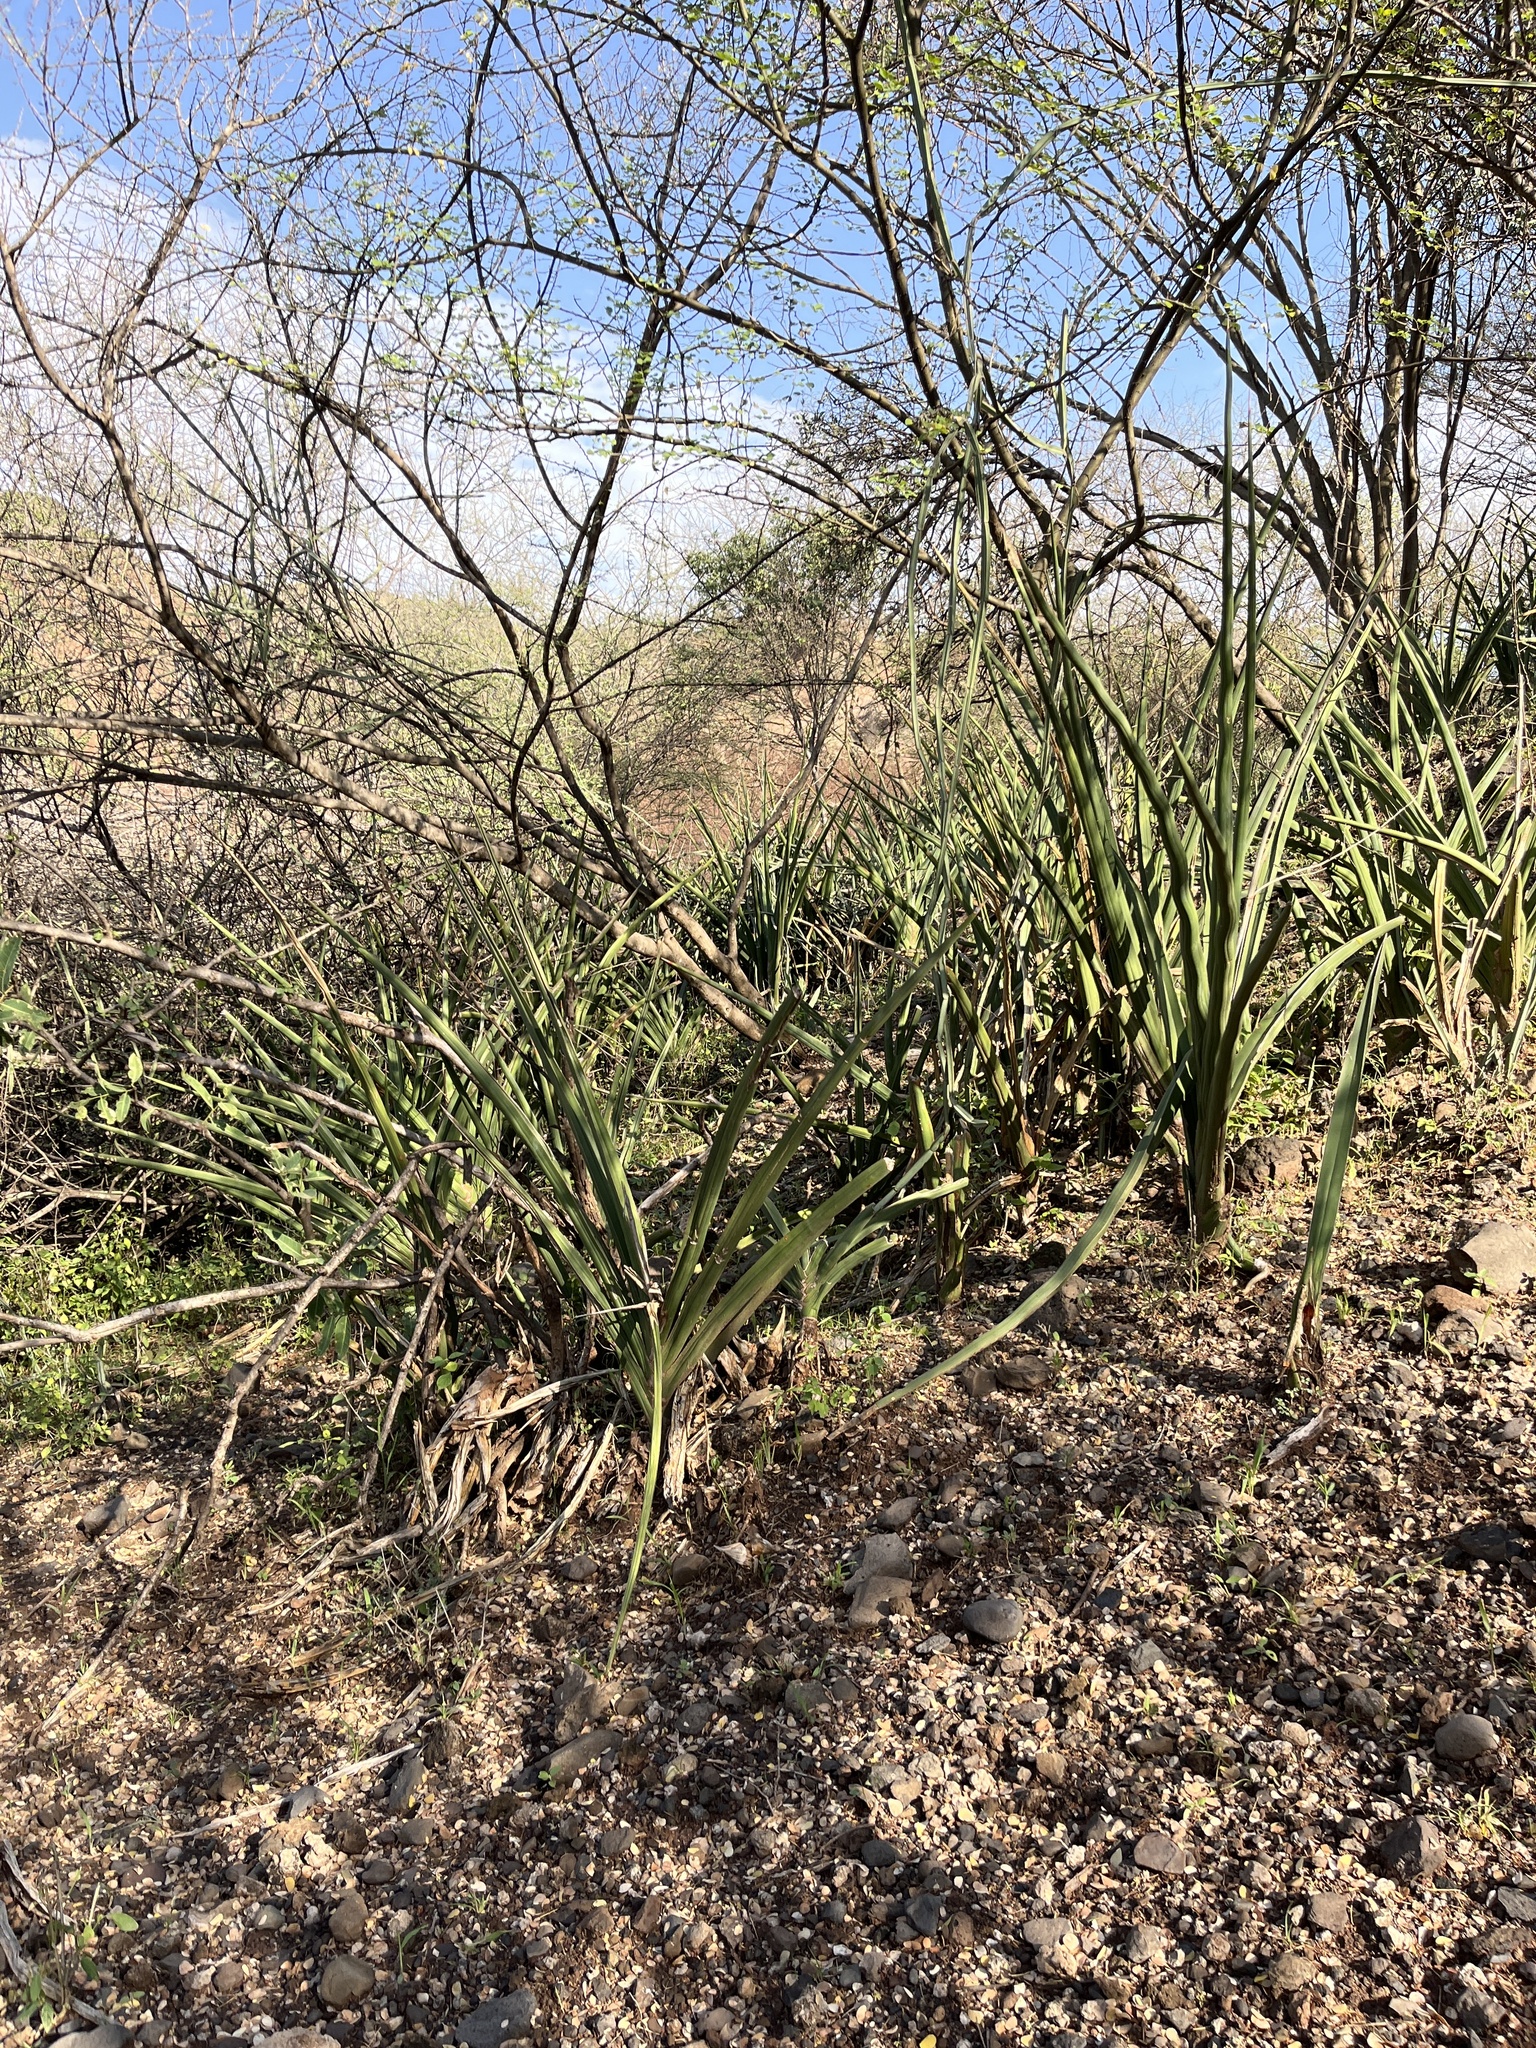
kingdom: Plantae
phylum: Tracheophyta
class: Liliopsida
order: Asparagales
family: Asparagaceae
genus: Dracaena
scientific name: Dracaena angolensis
